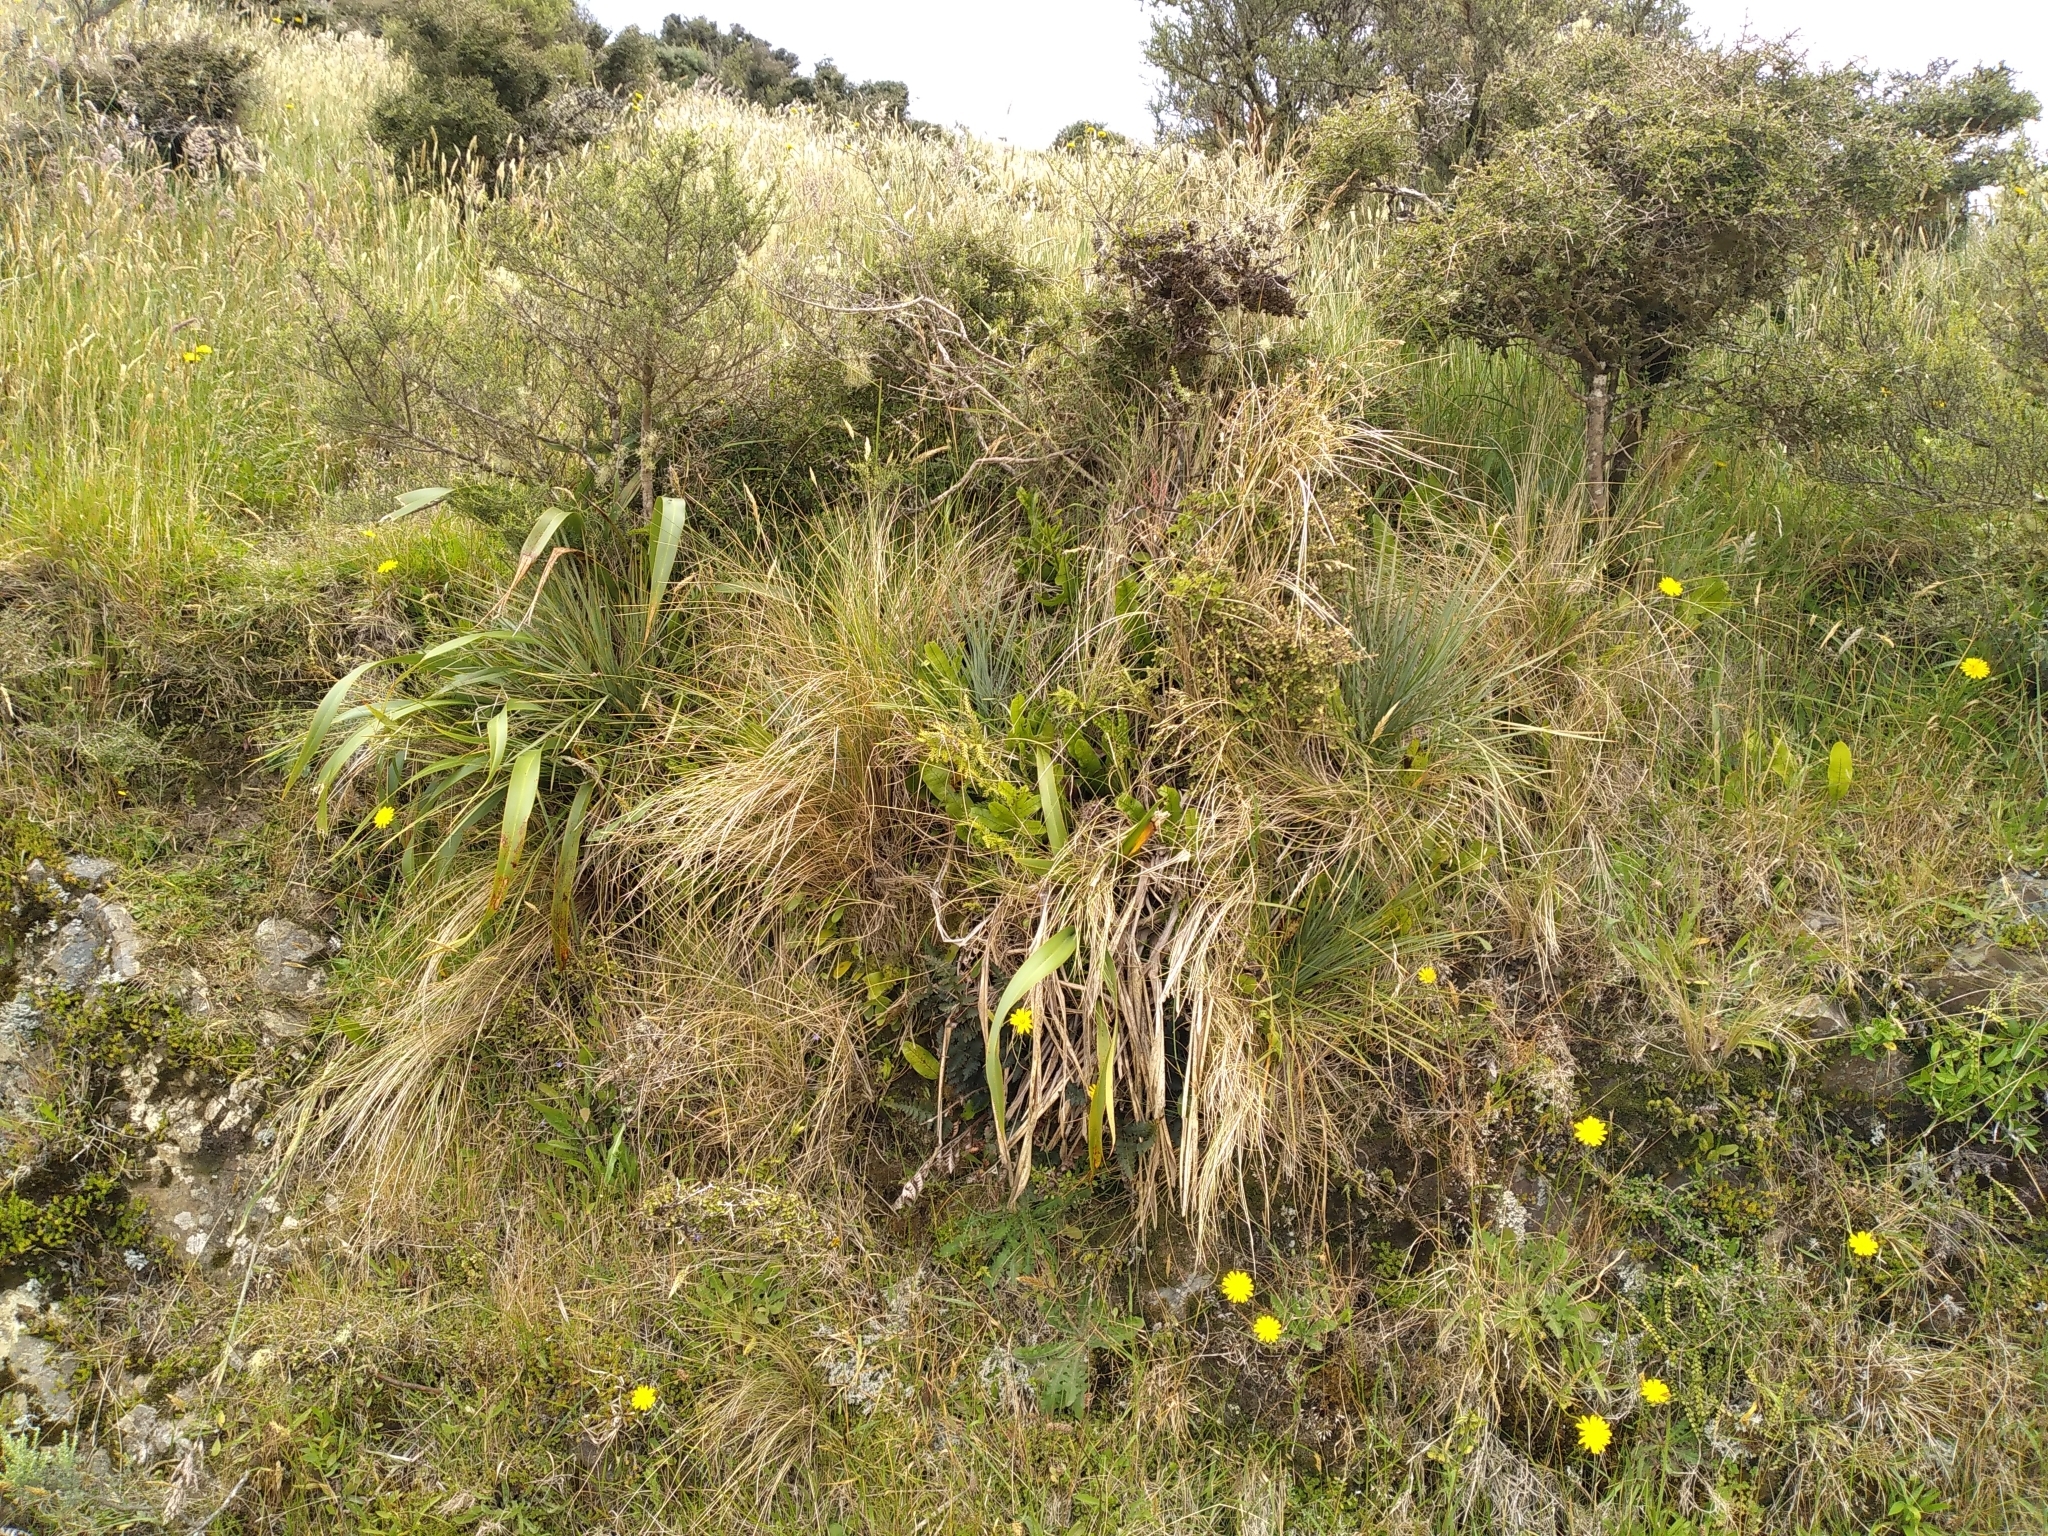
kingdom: Plantae
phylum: Tracheophyta
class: Magnoliopsida
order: Apiales
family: Apiaceae
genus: Aciphylla
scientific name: Aciphylla squarrosa
